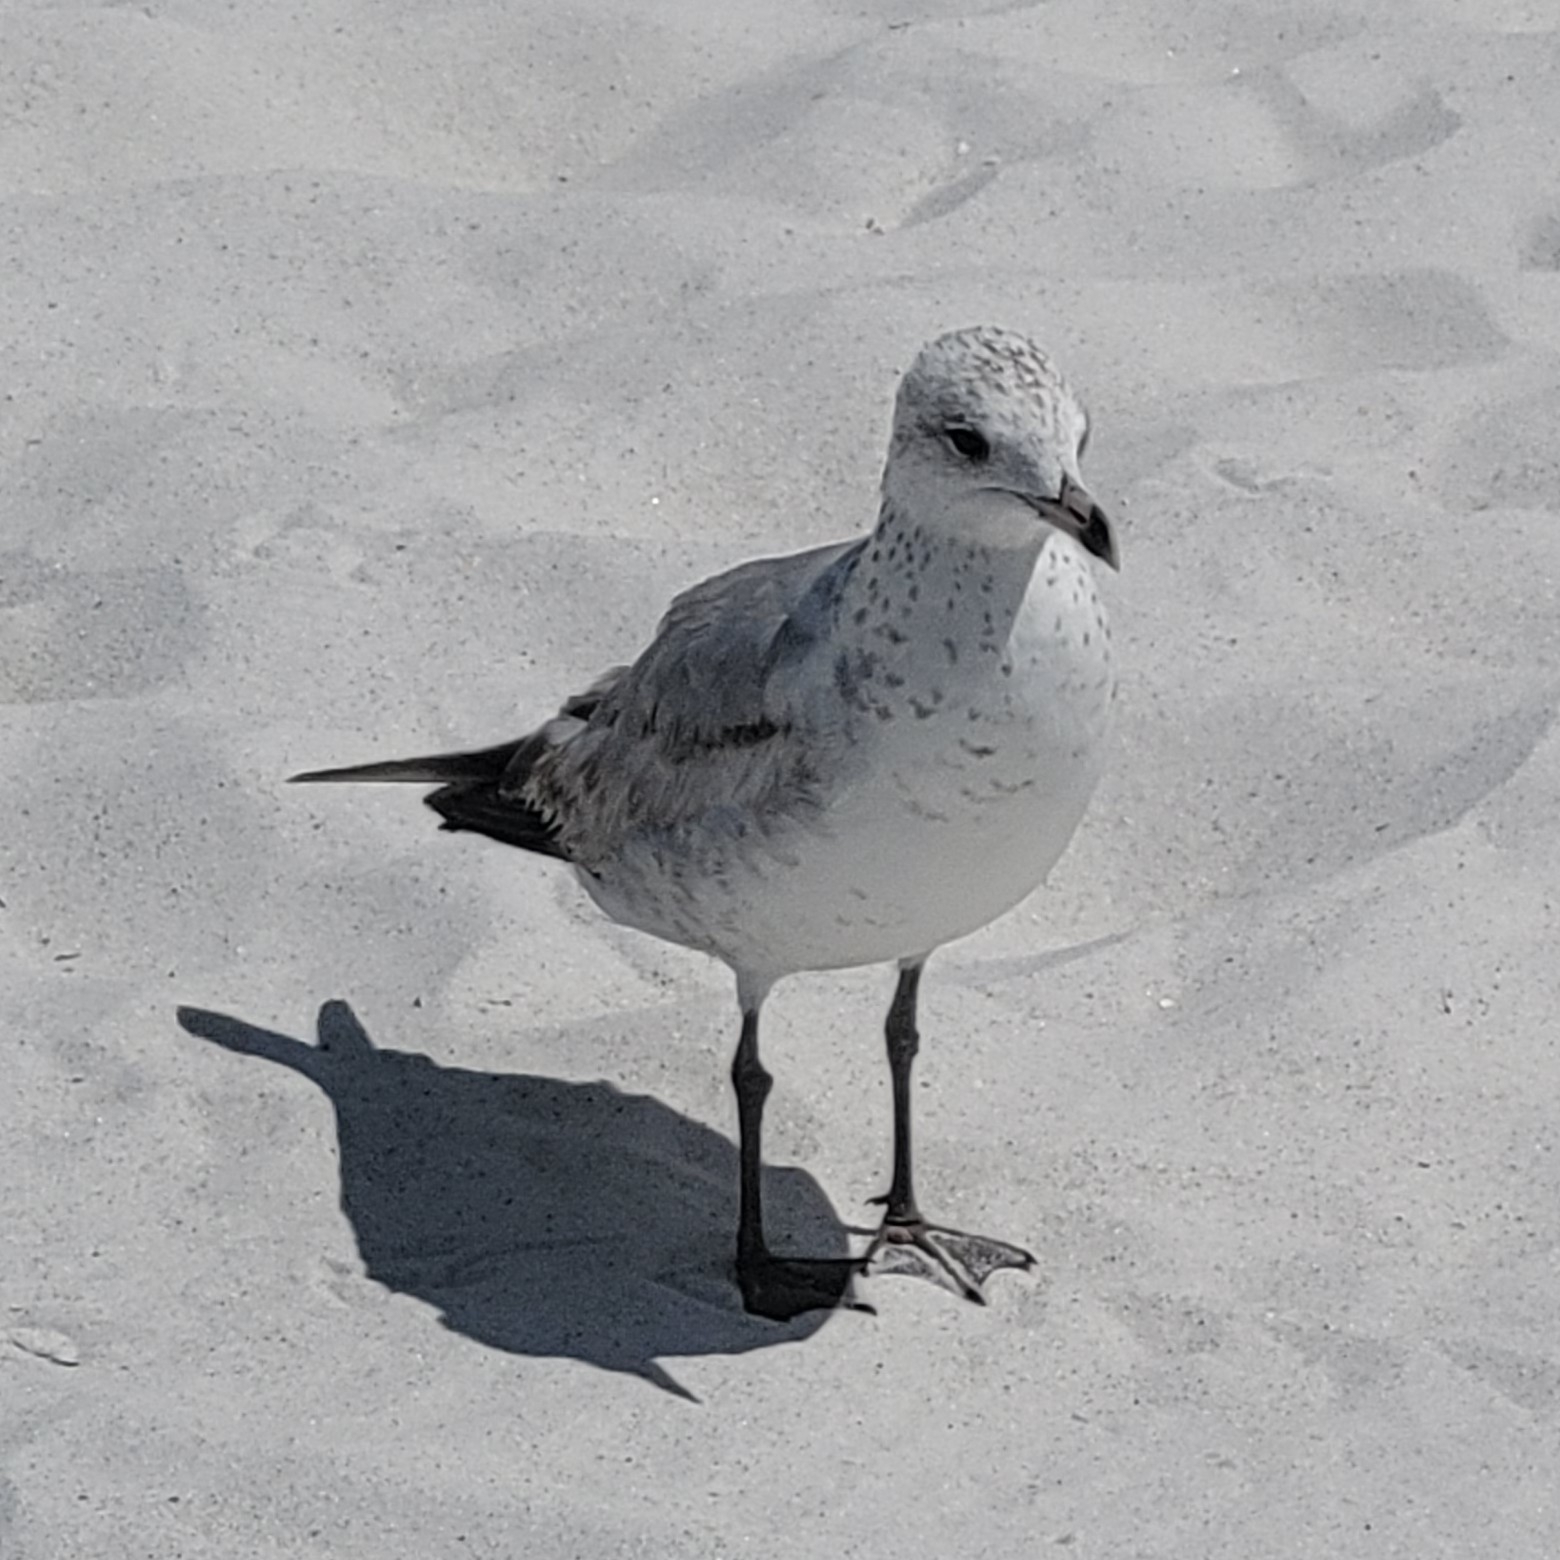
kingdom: Animalia
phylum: Chordata
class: Aves
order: Charadriiformes
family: Laridae
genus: Larus
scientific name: Larus delawarensis
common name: Ring-billed gull
